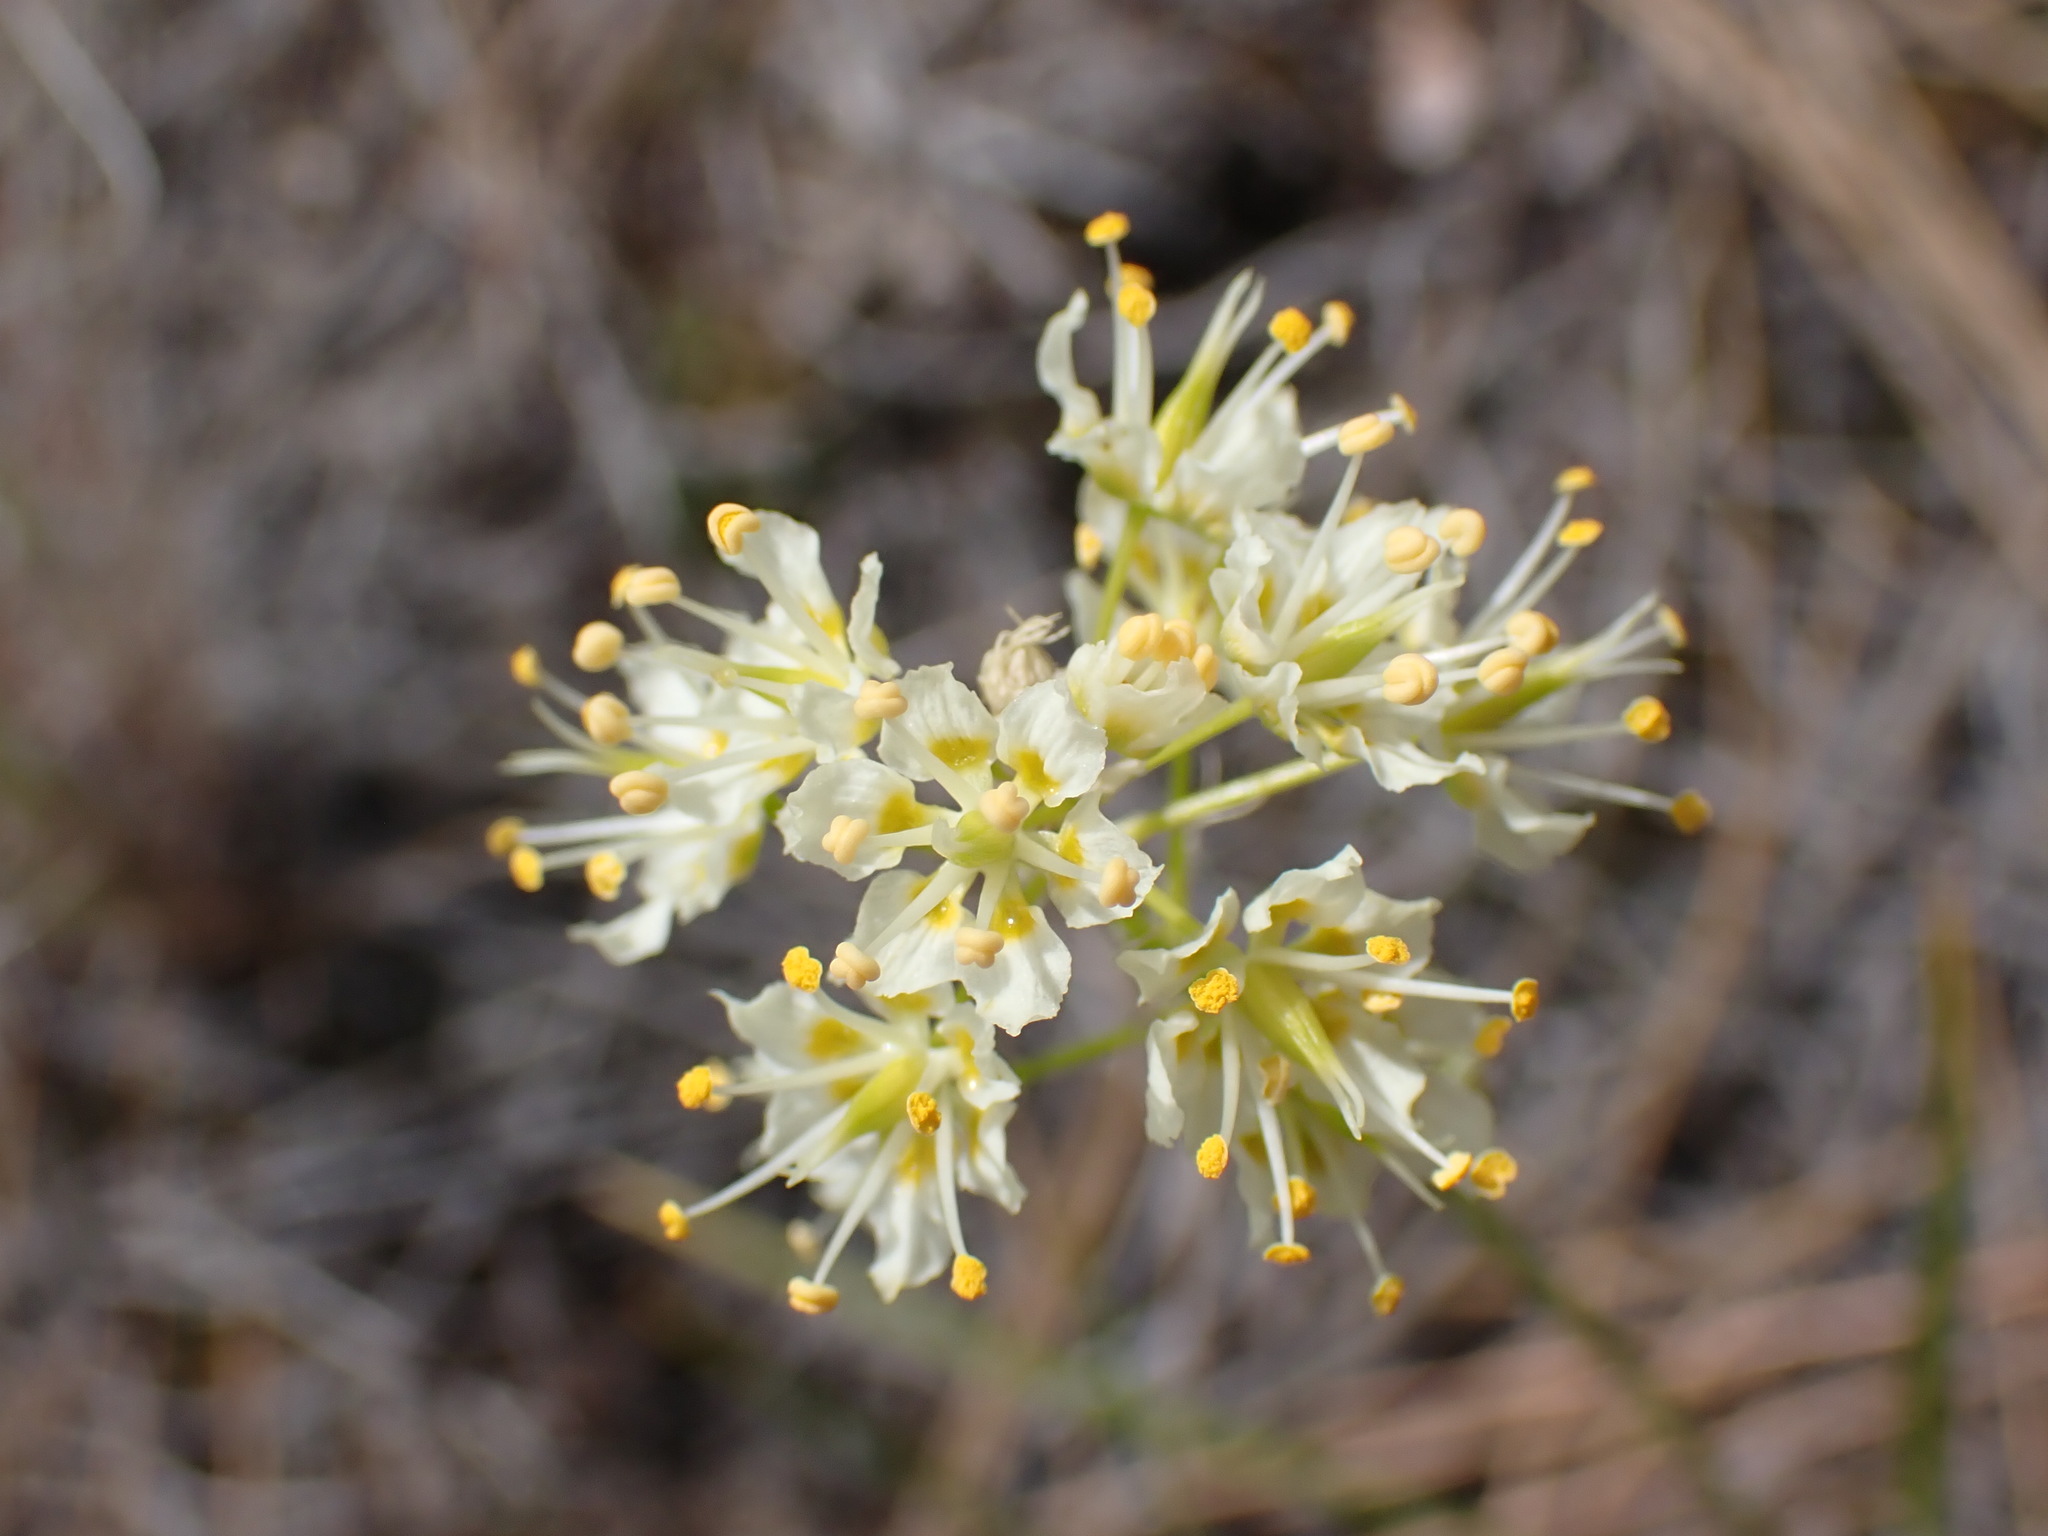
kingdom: Plantae
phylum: Tracheophyta
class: Liliopsida
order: Liliales
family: Melanthiaceae
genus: Toxicoscordion
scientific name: Toxicoscordion venenosum
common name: Meadow death camas
